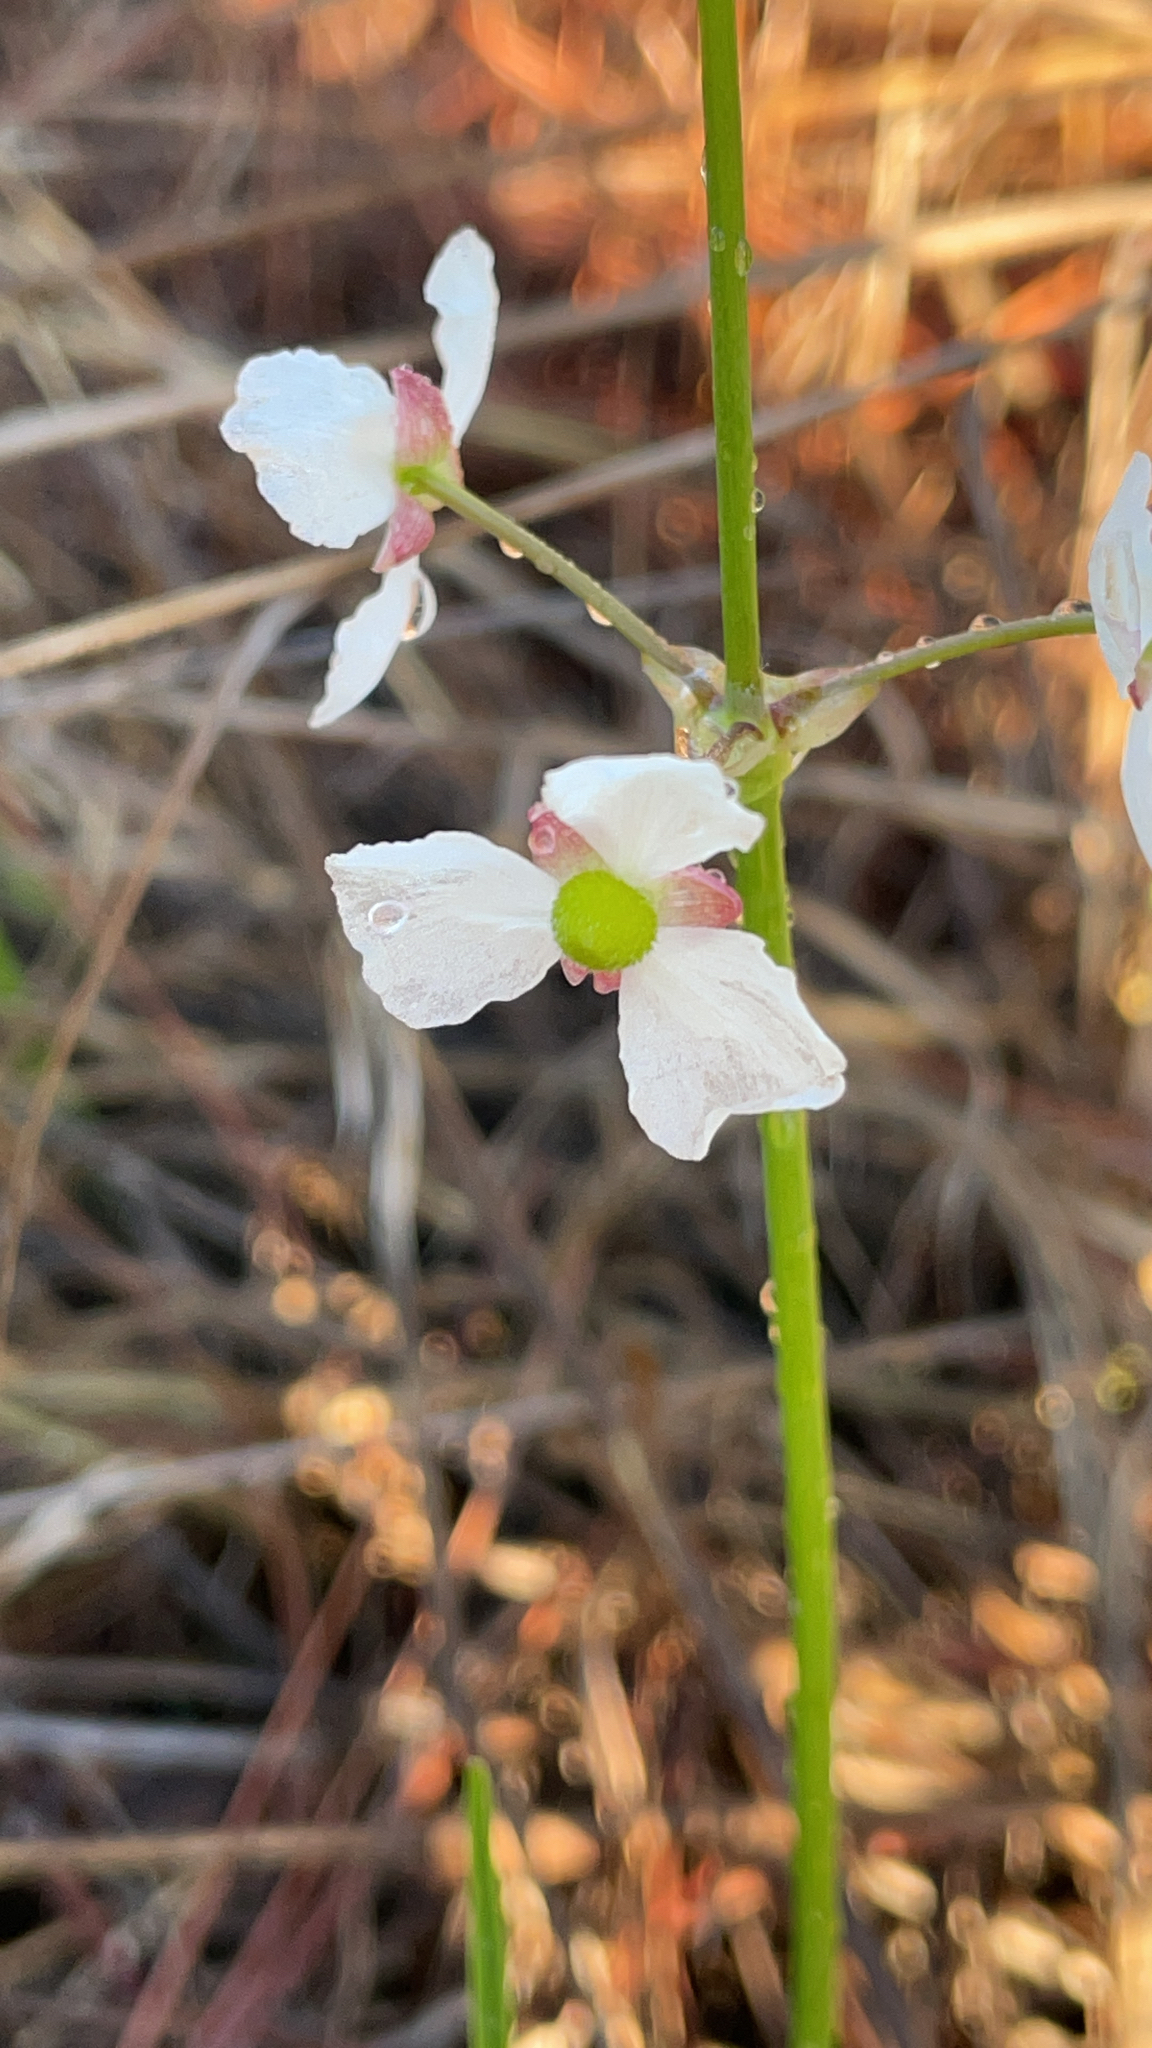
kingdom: Plantae
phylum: Tracheophyta
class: Liliopsida
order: Alismatales
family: Alismataceae
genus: Sagittaria
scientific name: Sagittaria lancifolia
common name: Lance-leaf arrowhead
